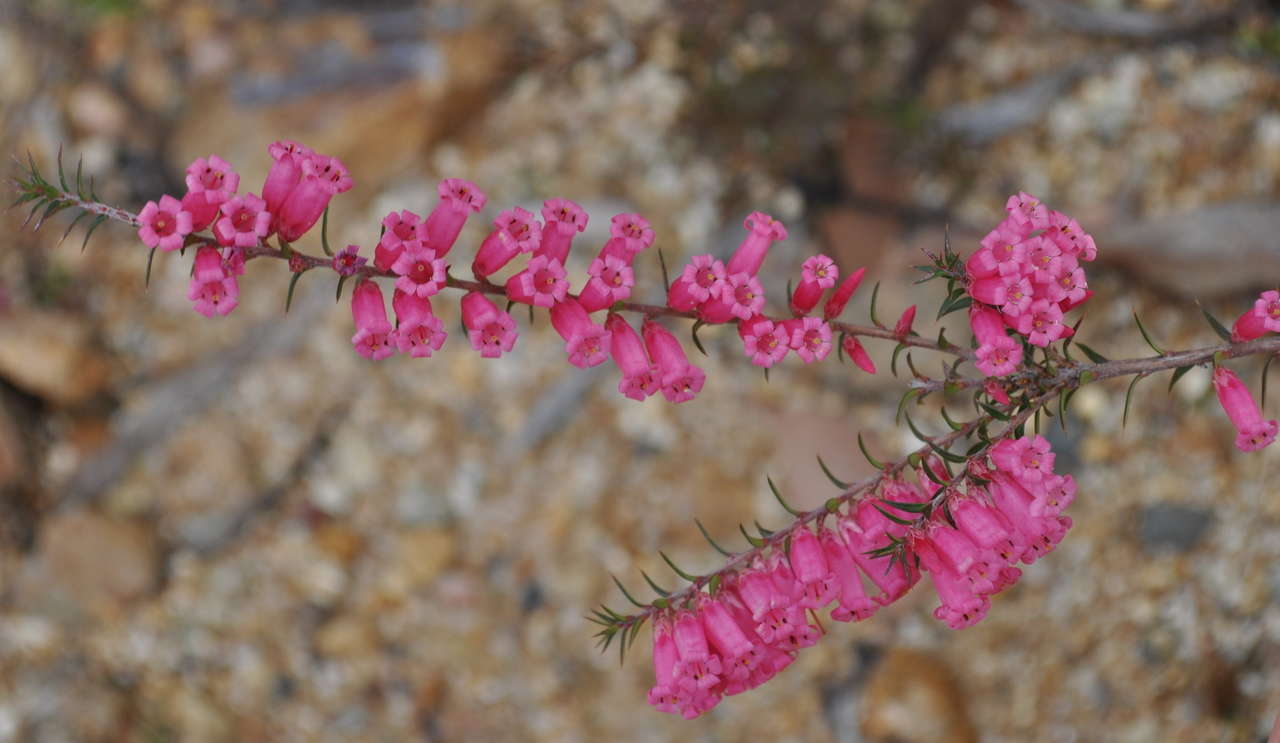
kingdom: Plantae
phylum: Tracheophyta
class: Magnoliopsida
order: Ericales
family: Ericaceae
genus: Epacris
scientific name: Epacris impressa
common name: Common-heath
